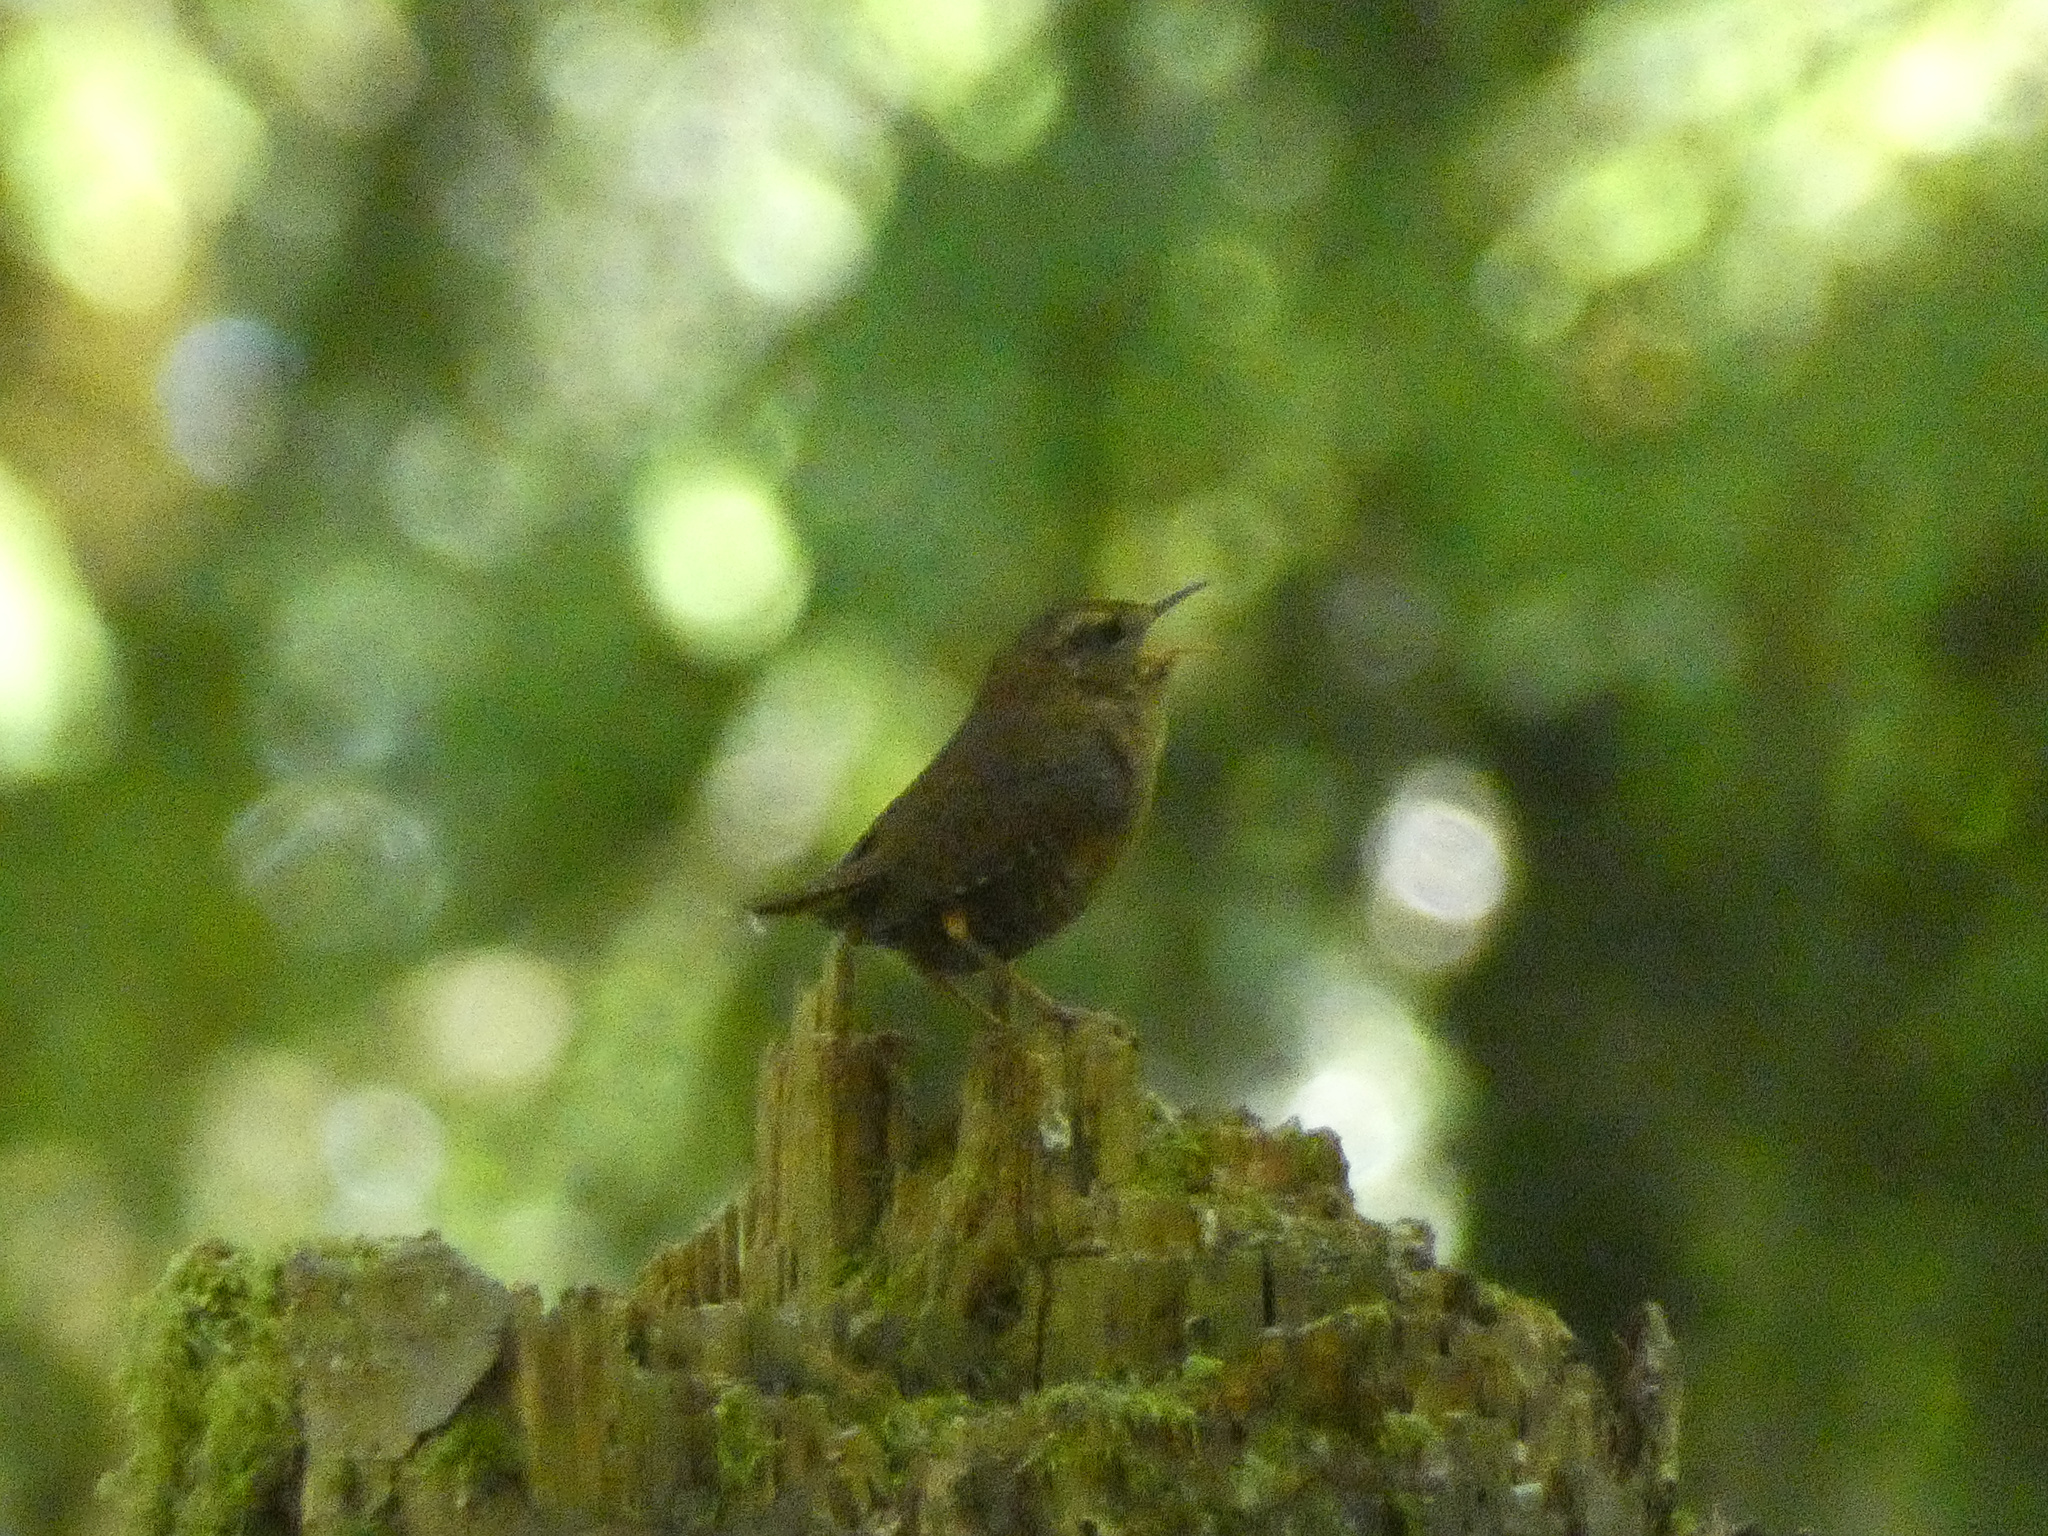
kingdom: Animalia
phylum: Chordata
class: Aves
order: Passeriformes
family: Troglodytidae
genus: Troglodytes
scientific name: Troglodytes pacificus
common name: Pacific wren
